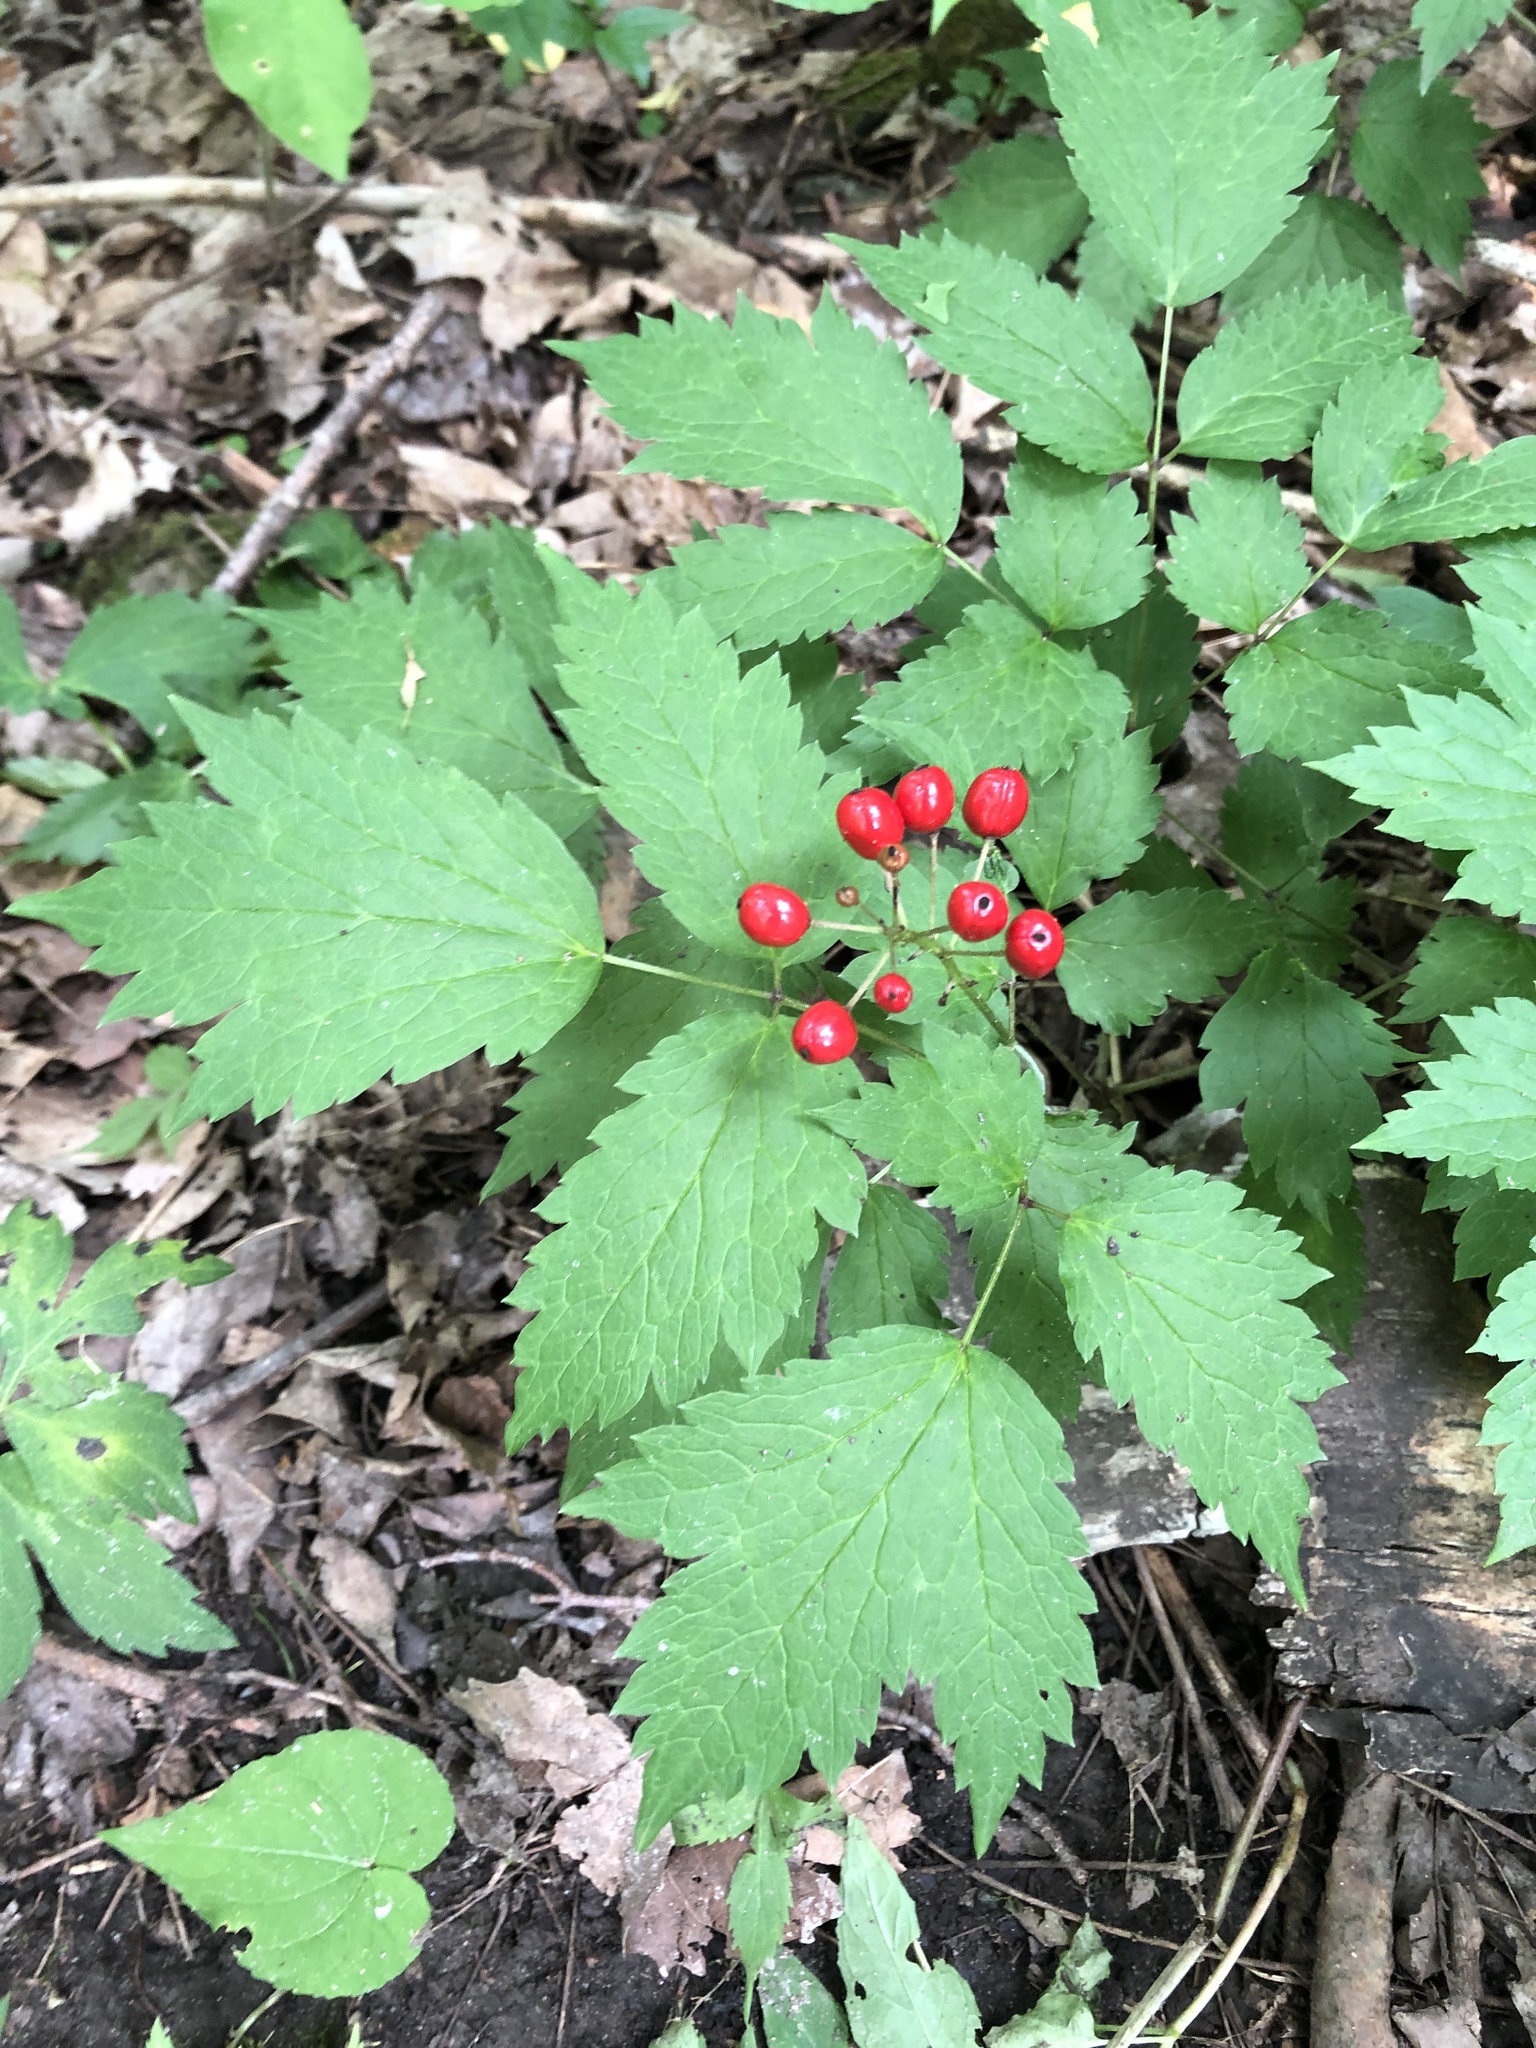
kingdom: Plantae
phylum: Tracheophyta
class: Magnoliopsida
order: Ranunculales
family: Ranunculaceae
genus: Actaea
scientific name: Actaea rubra
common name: Red baneberry
